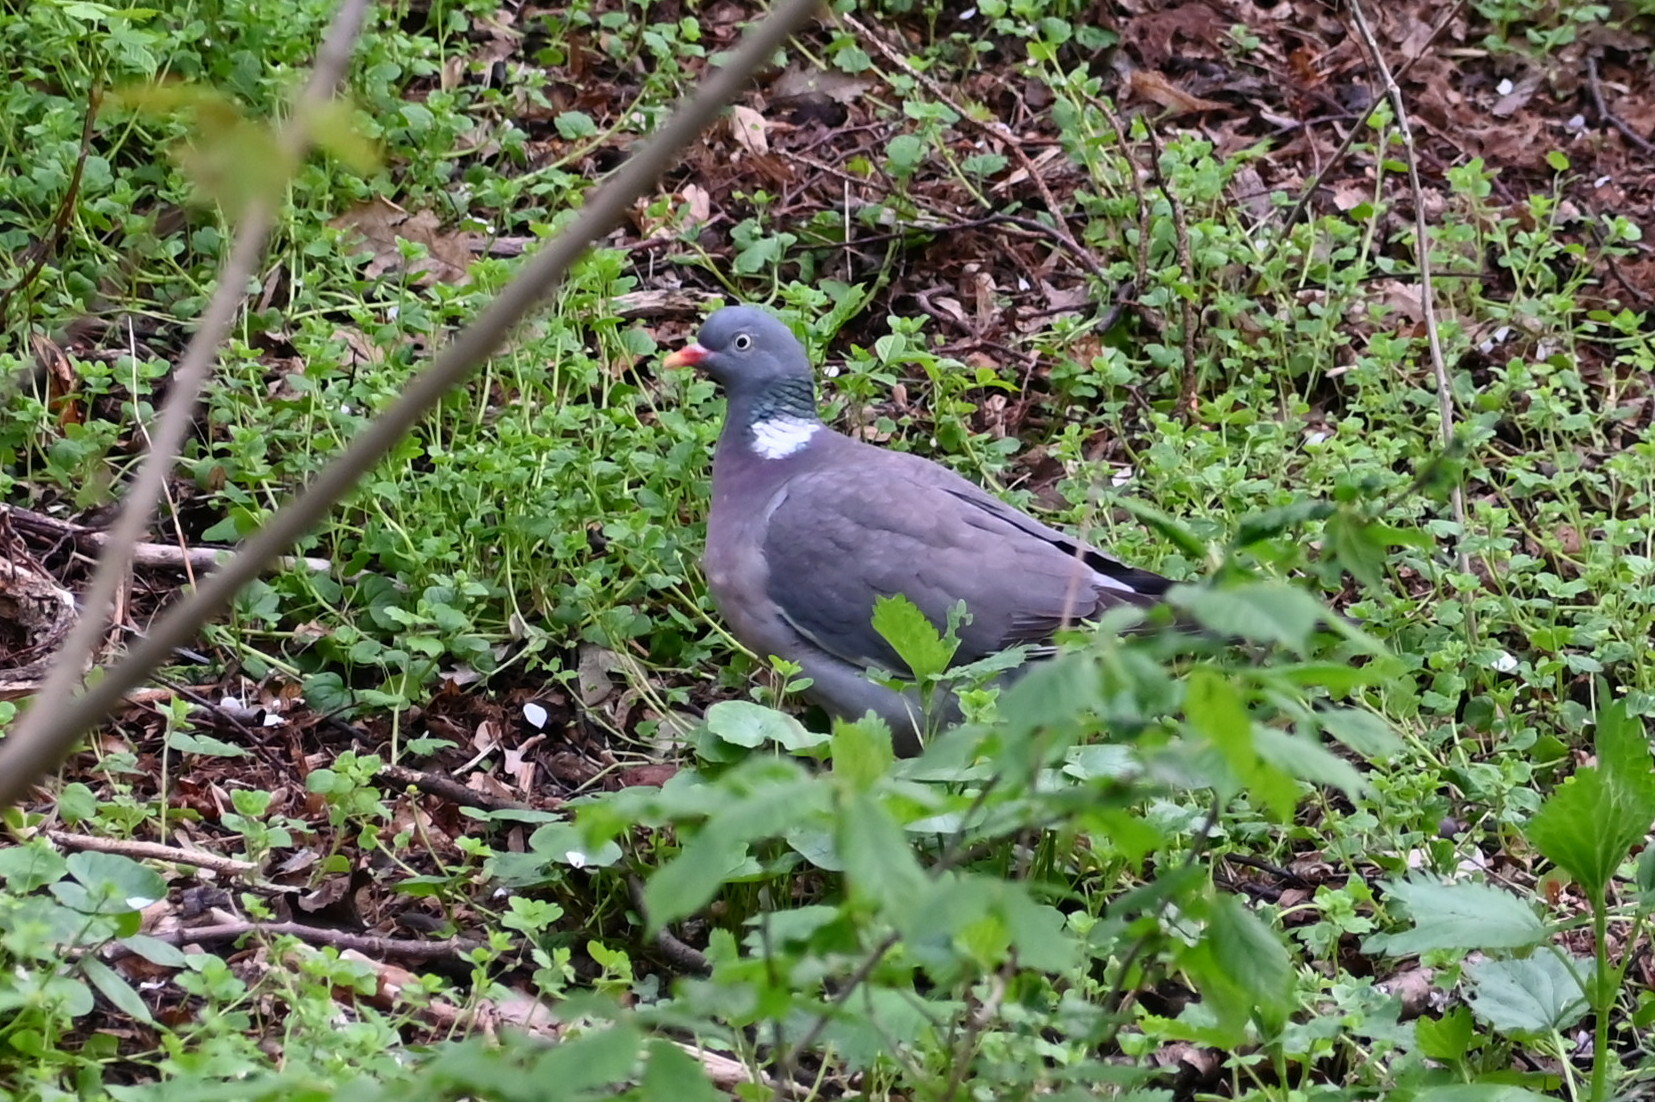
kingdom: Animalia
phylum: Chordata
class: Aves
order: Columbiformes
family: Columbidae
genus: Columba
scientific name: Columba palumbus
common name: Common wood pigeon
